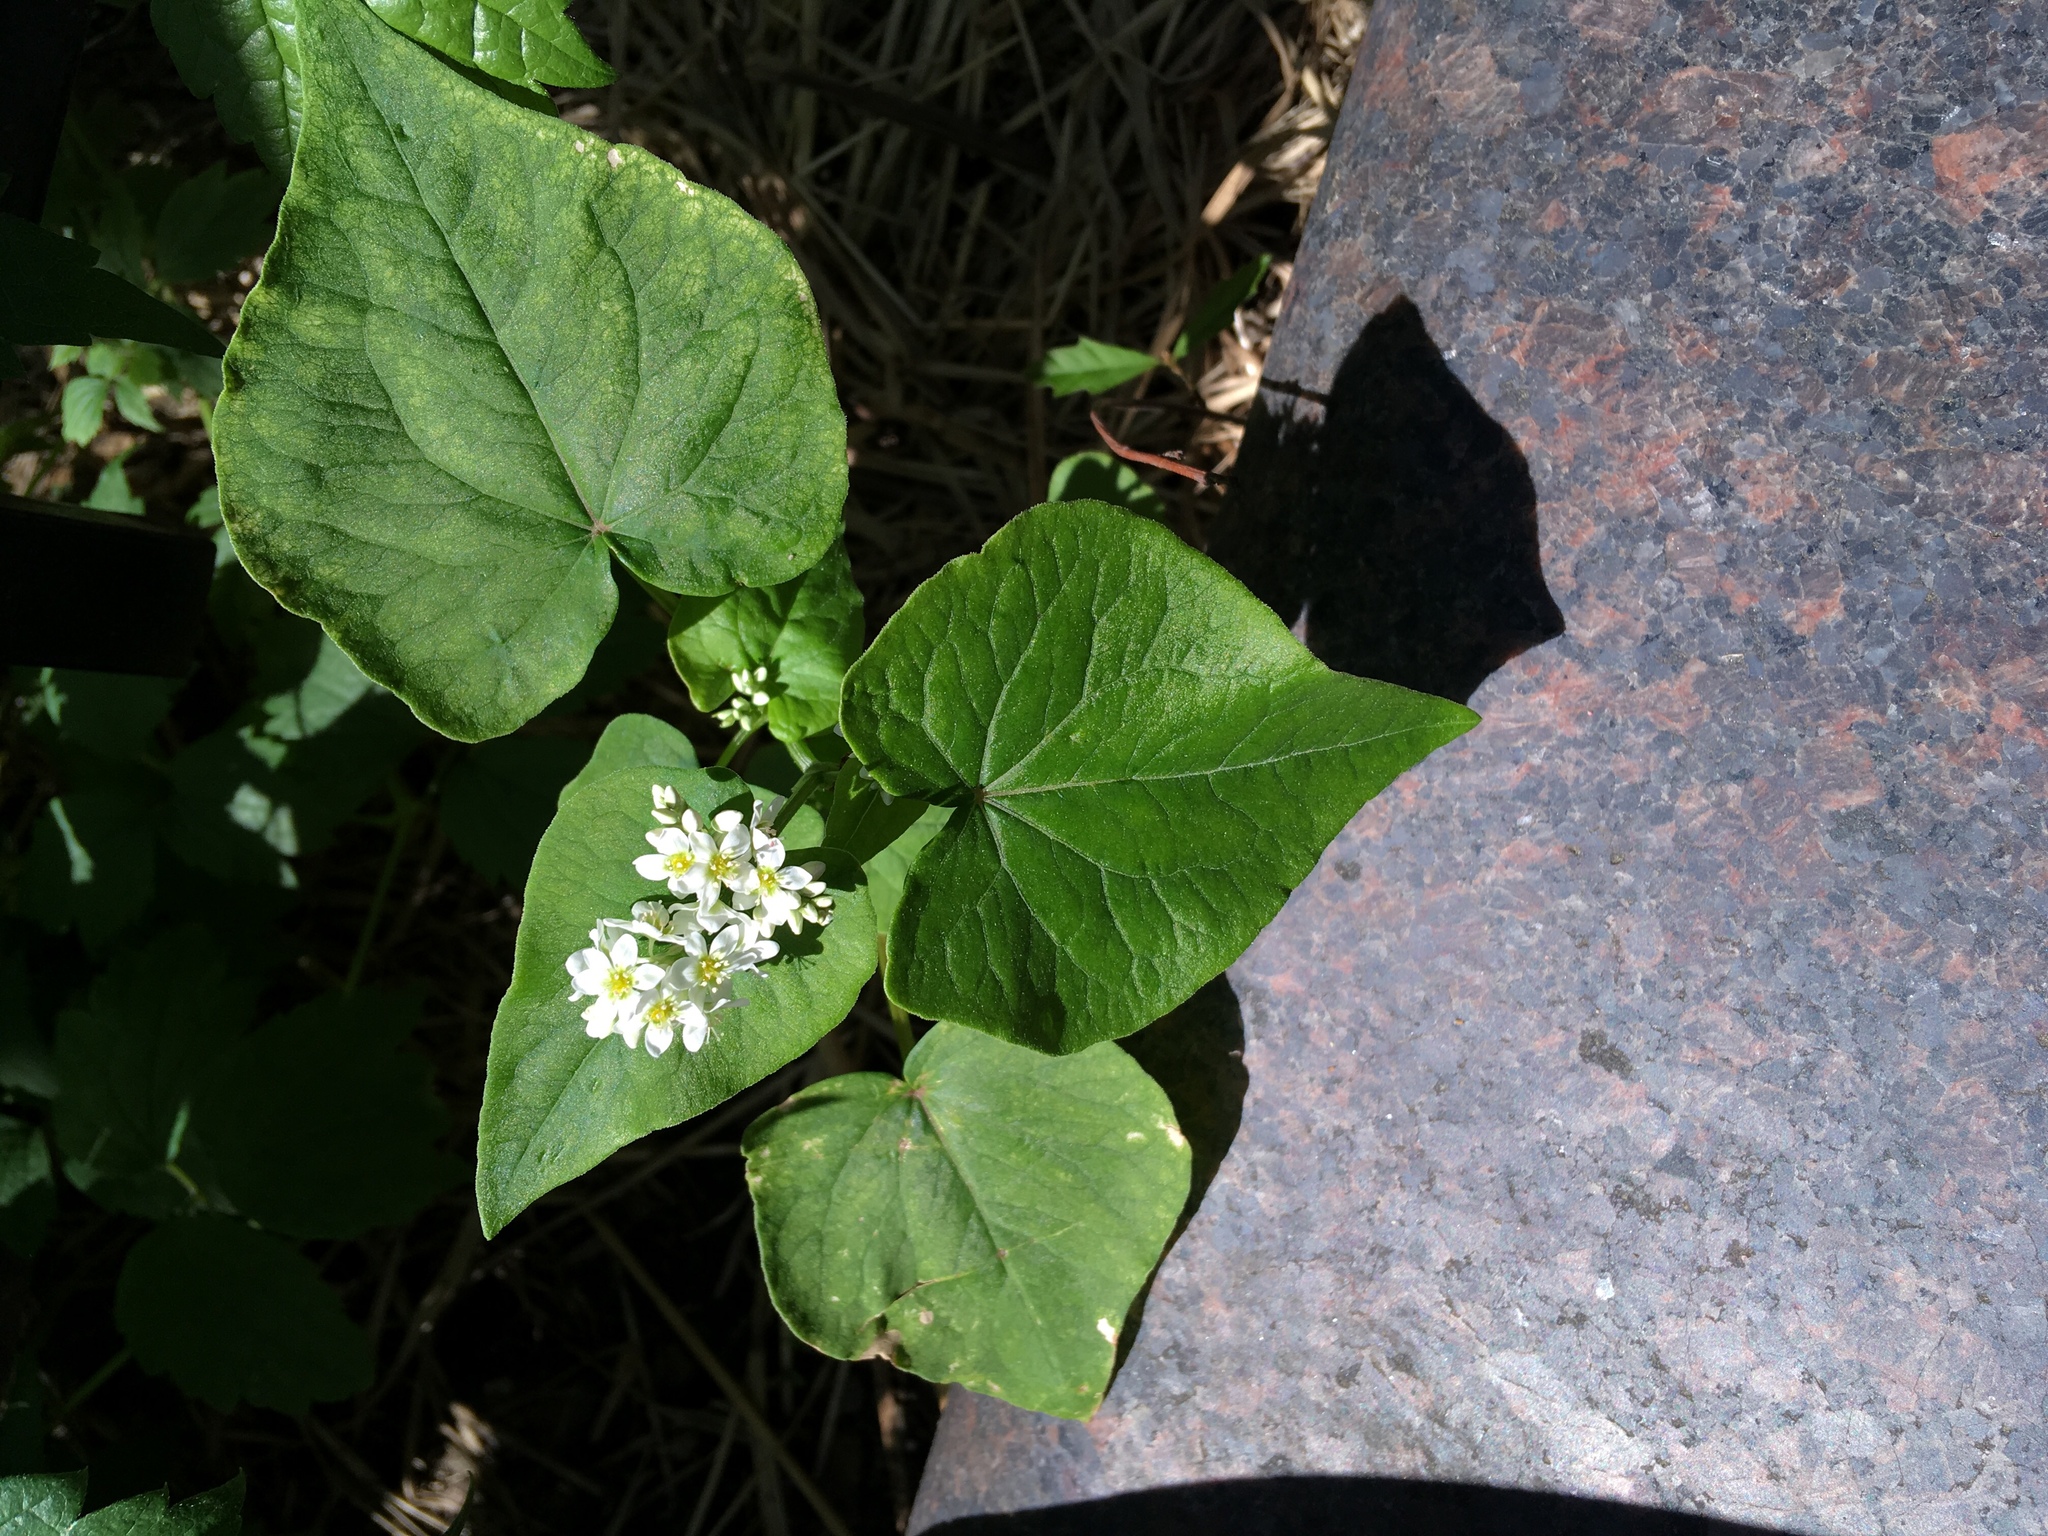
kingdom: Plantae
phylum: Tracheophyta
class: Magnoliopsida
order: Caryophyllales
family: Polygonaceae
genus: Fagopyrum
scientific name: Fagopyrum esculentum
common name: Buckwheat
